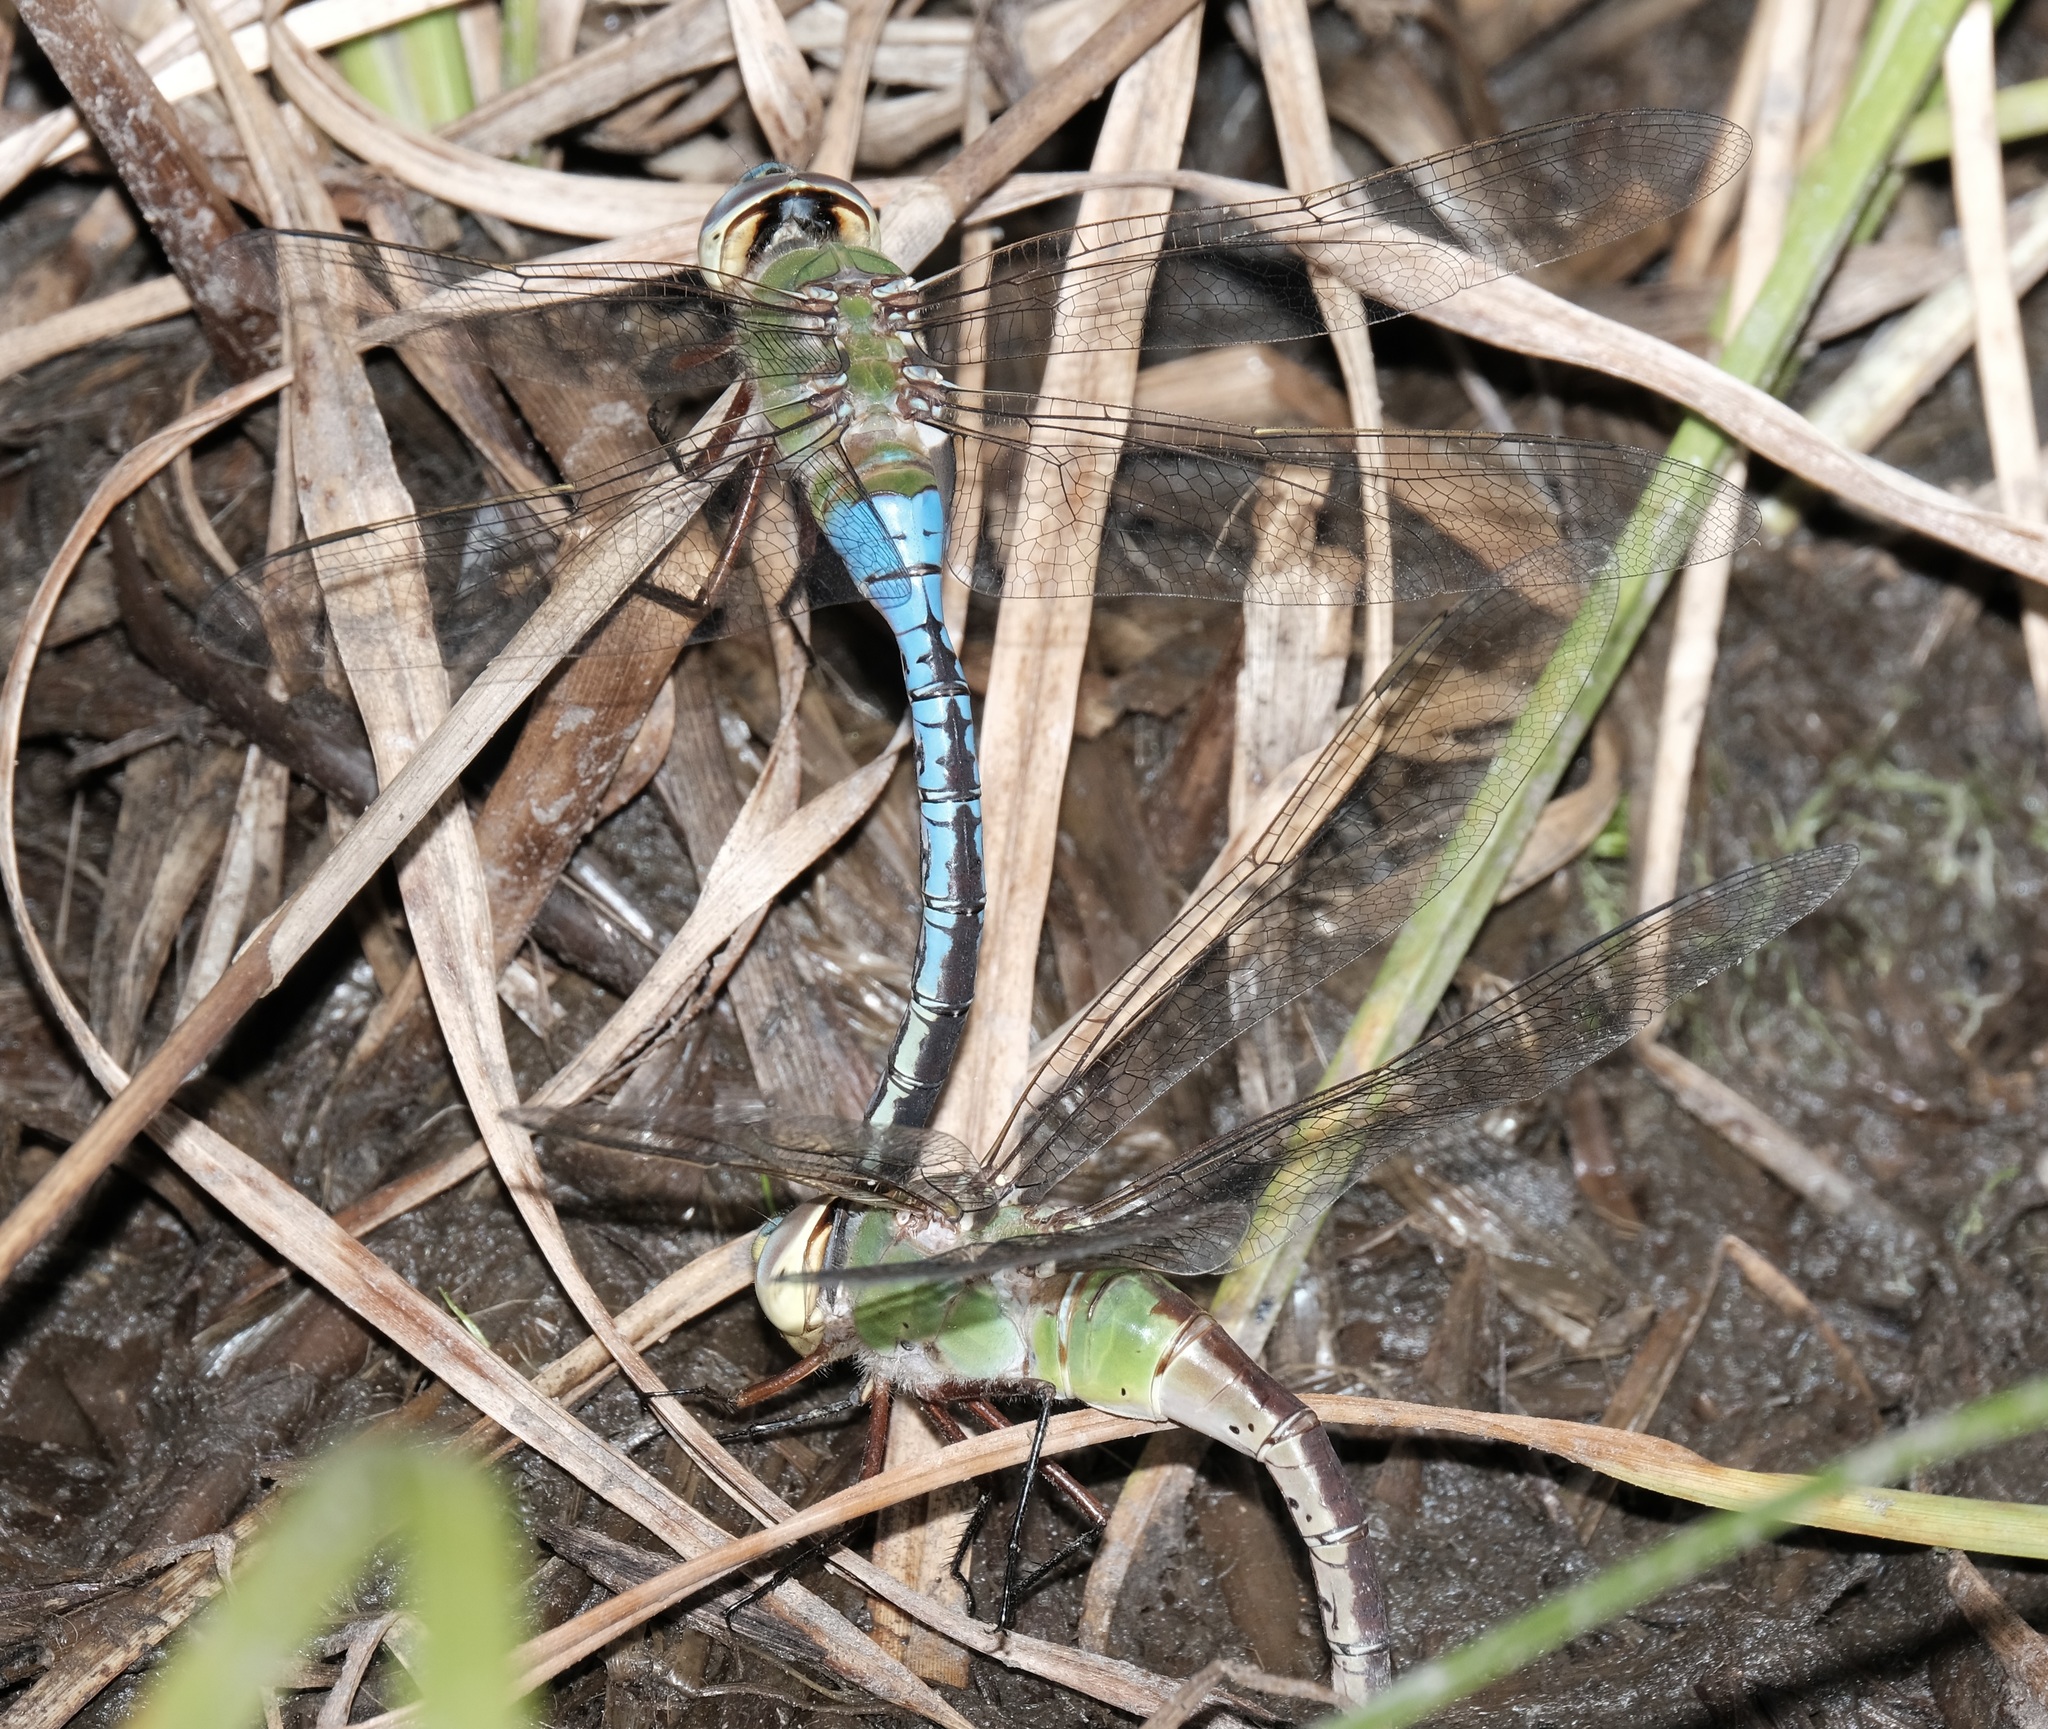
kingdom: Animalia
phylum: Arthropoda
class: Insecta
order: Odonata
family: Aeshnidae
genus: Anax
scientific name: Anax junius
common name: Common green darner
